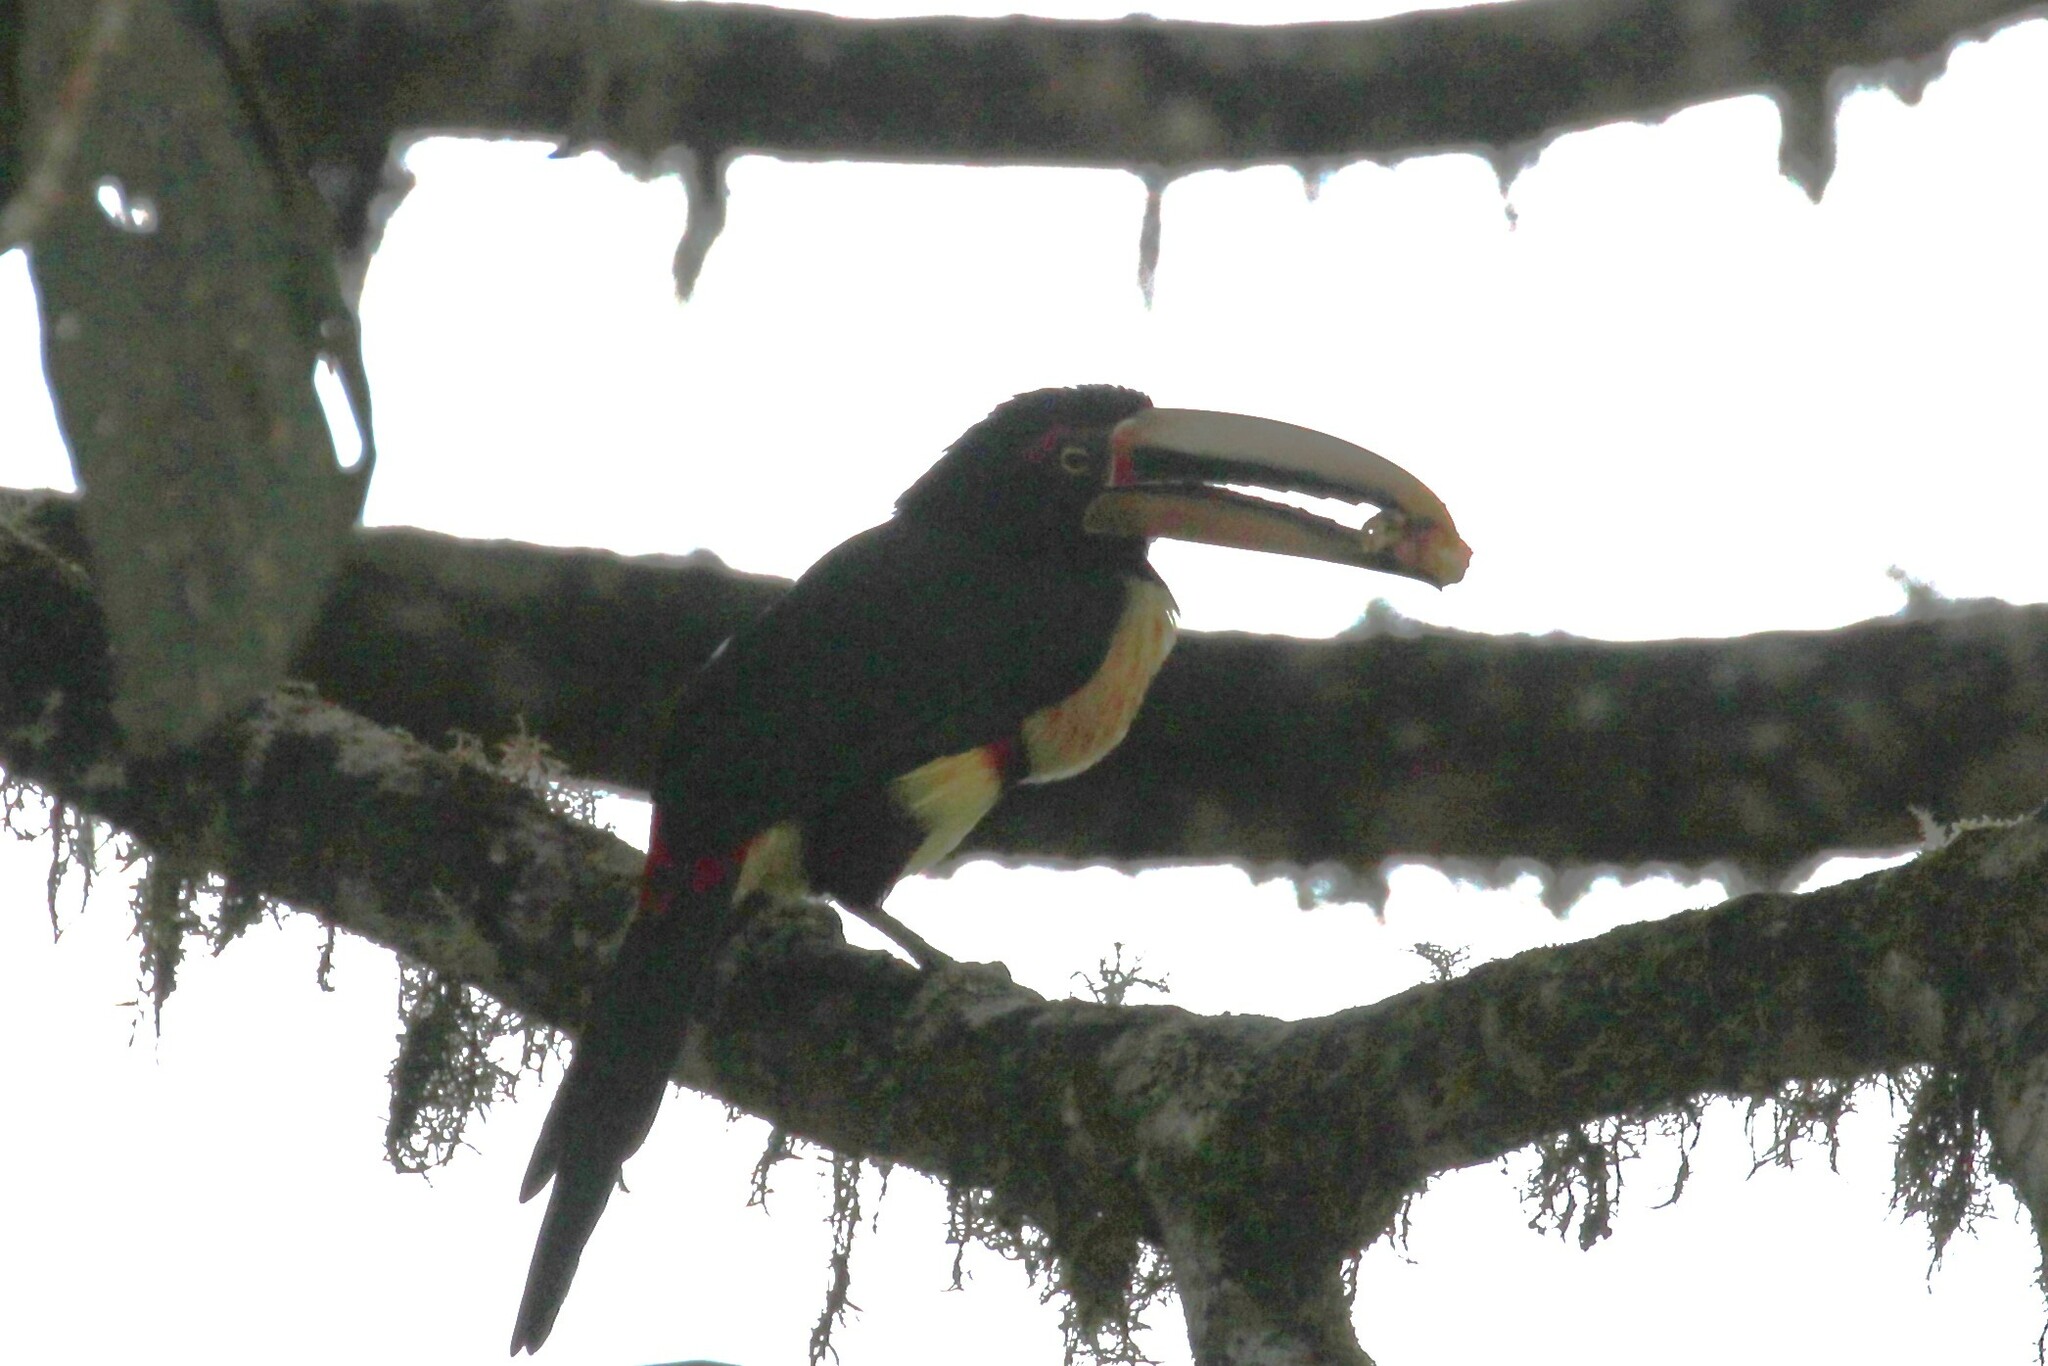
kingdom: Animalia
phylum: Chordata
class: Aves
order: Piciformes
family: Ramphastidae
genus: Pteroglossus
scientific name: Pteroglossus torquatus
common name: Collared aracari
